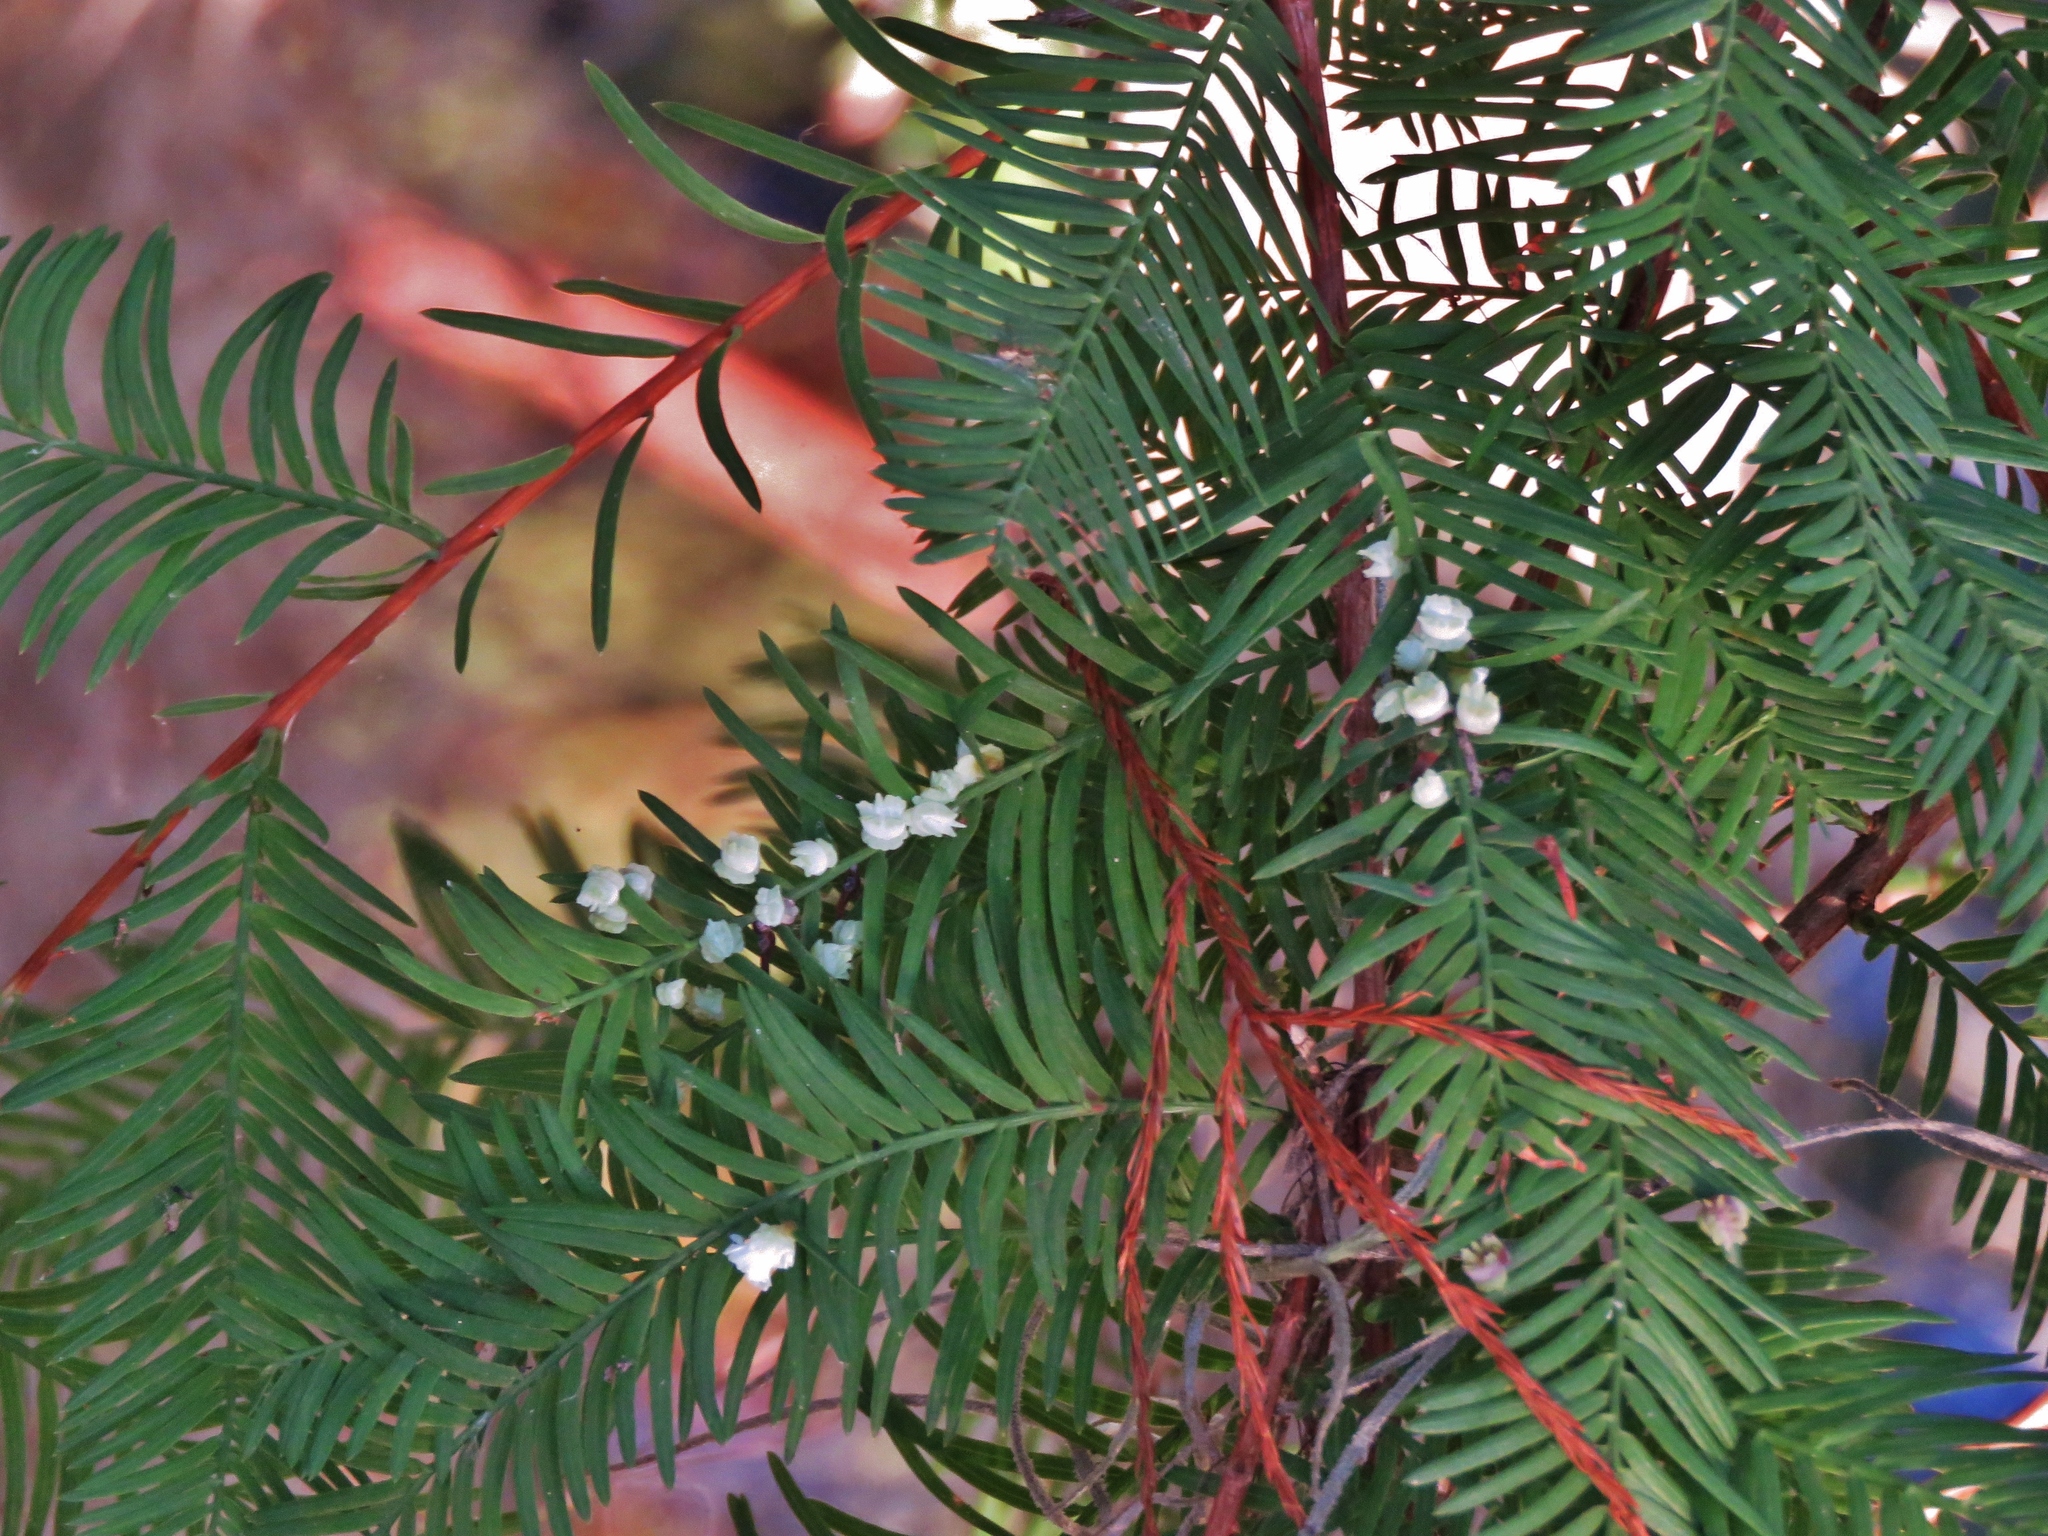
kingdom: Animalia
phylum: Arthropoda
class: Insecta
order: Diptera
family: Cecidomyiidae
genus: Taxodiomyia
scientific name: Taxodiomyia cupressi
